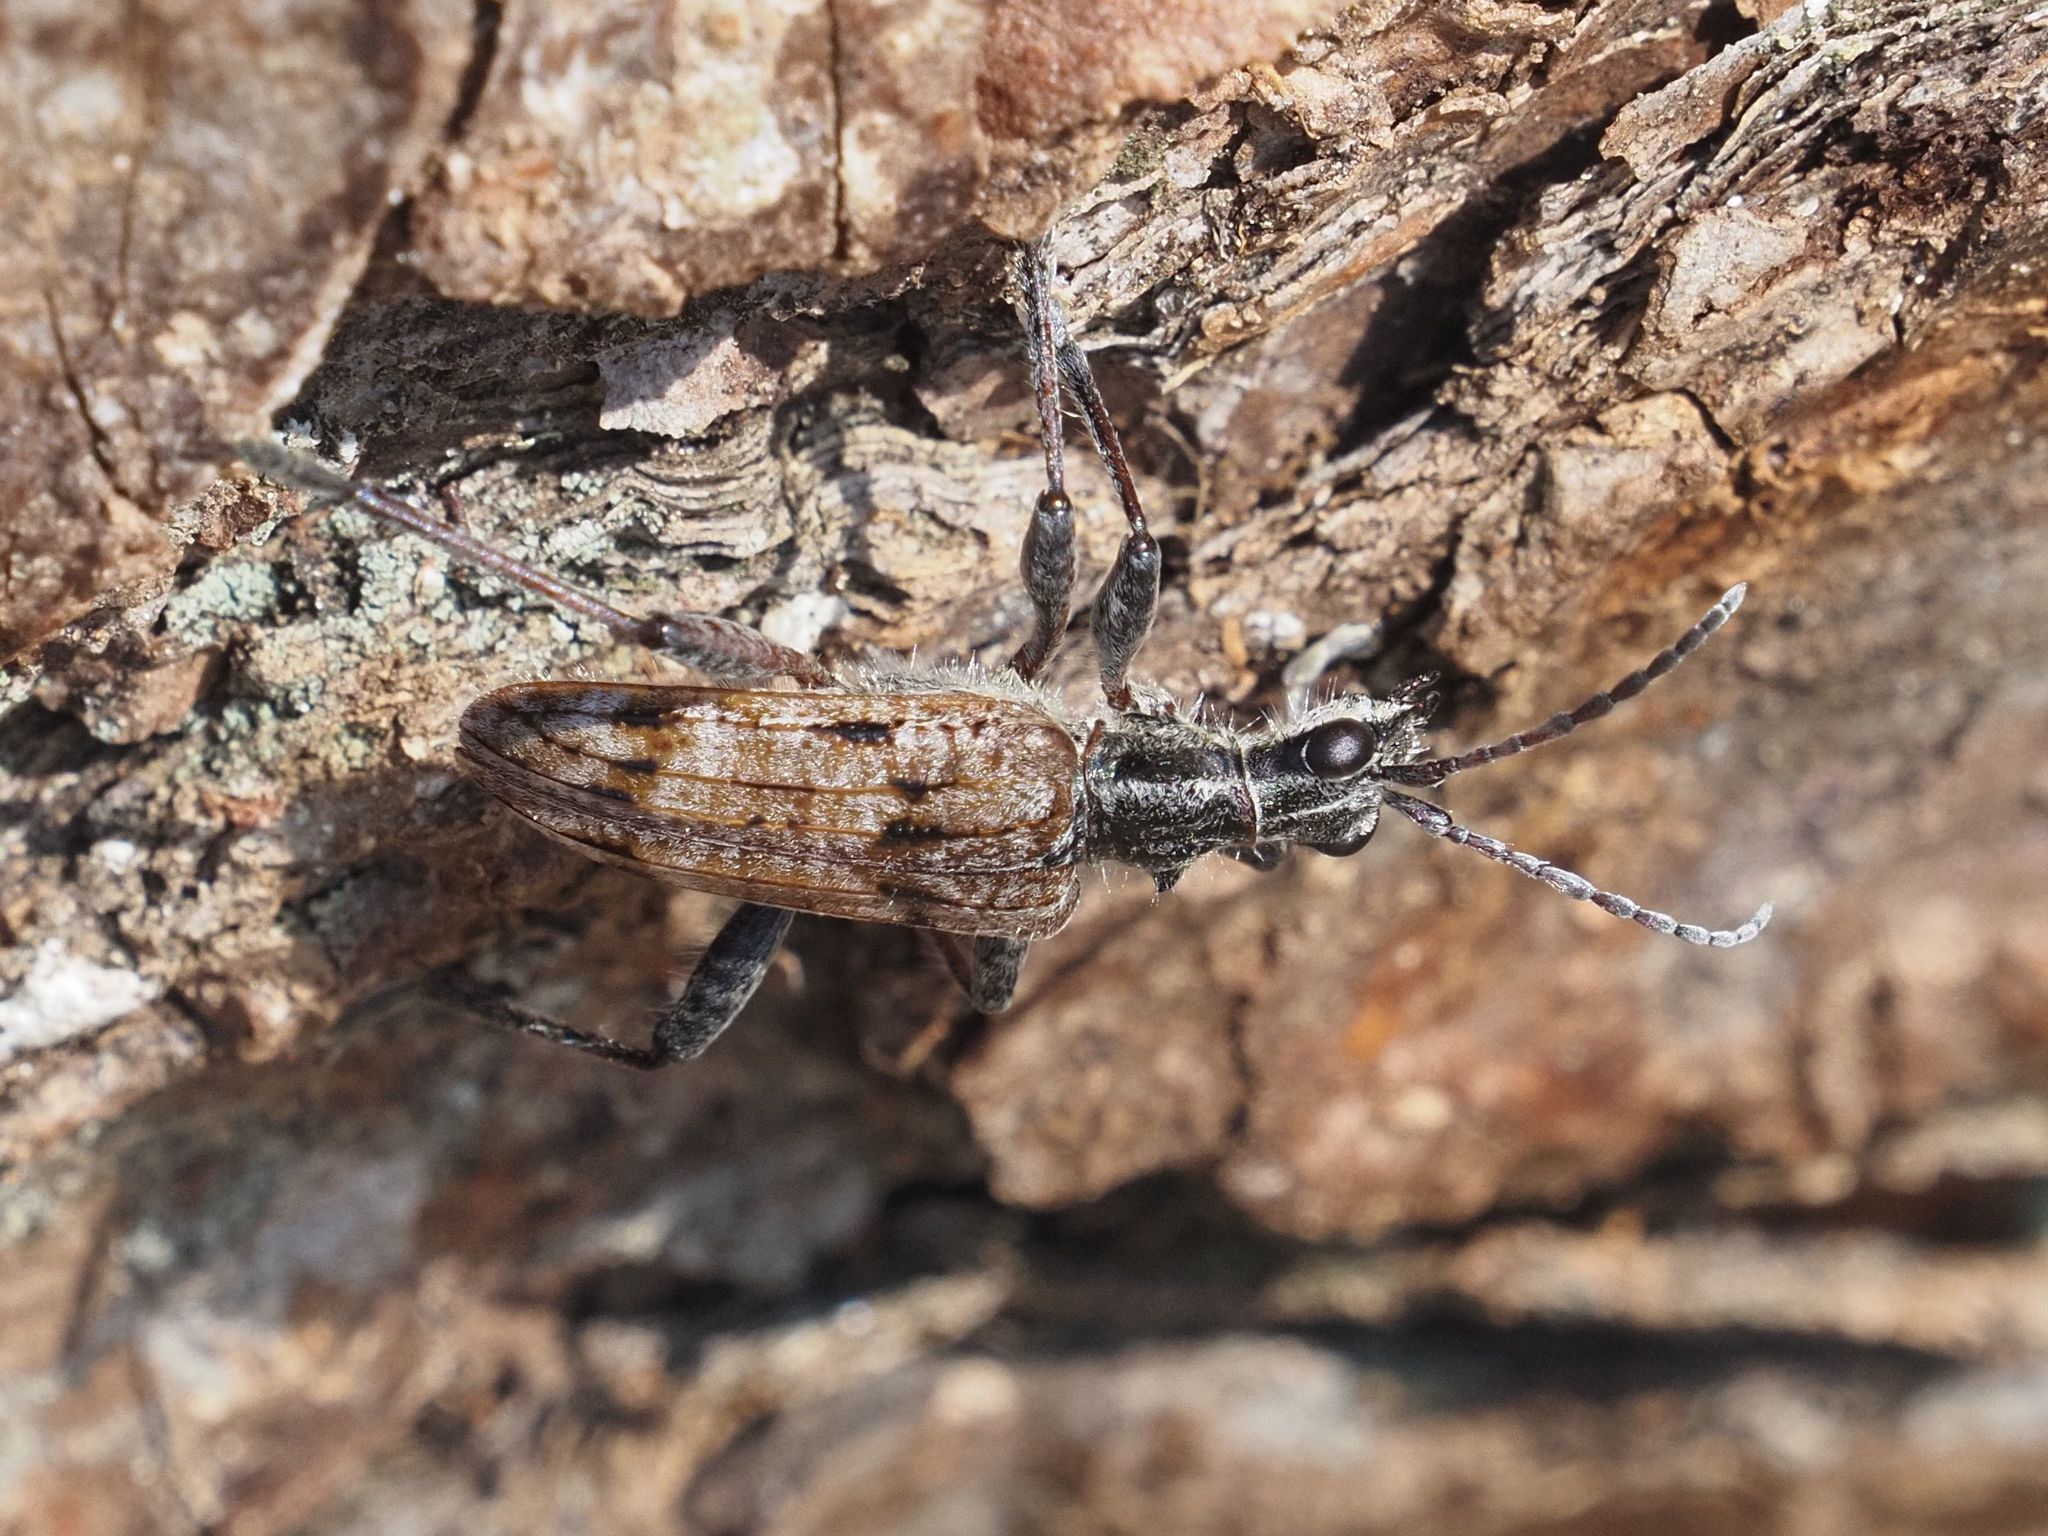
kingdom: Animalia
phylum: Arthropoda
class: Insecta
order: Coleoptera
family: Cerambycidae
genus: Rhagium
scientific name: Rhagium inquisitor
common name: Ribbed pine borer
